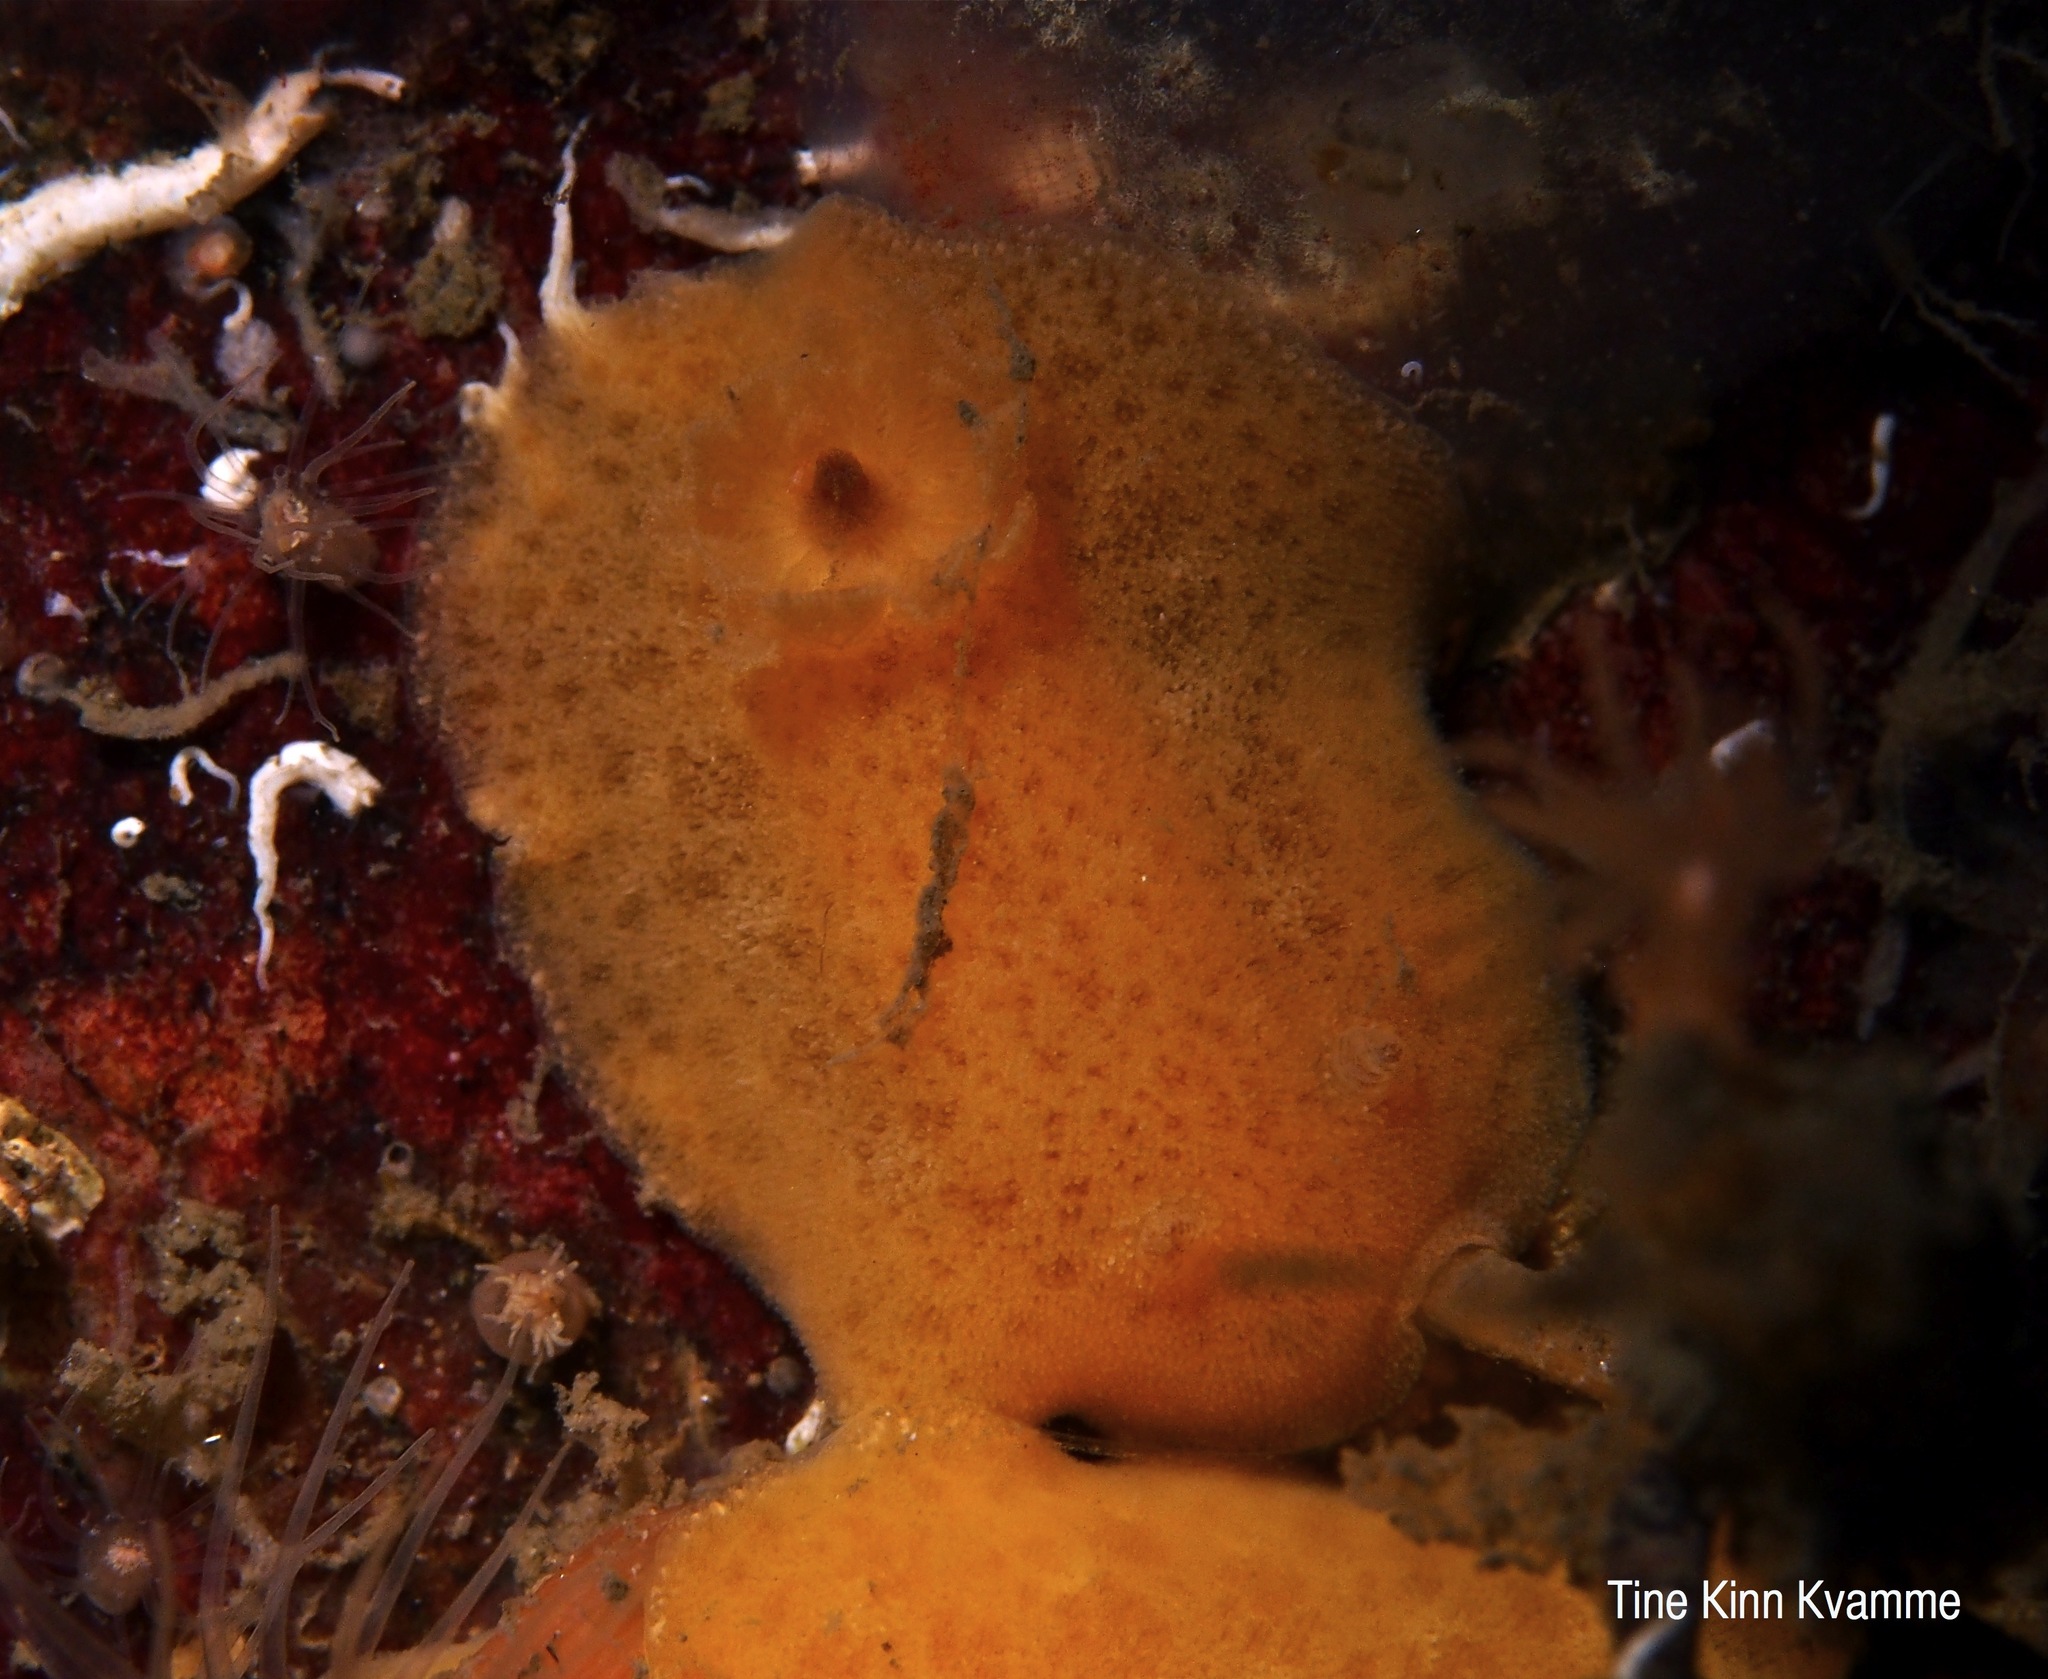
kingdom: Animalia
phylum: Mollusca
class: Gastropoda
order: Nudibranchia
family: Discodorididae
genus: Jorunna
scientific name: Jorunna tomentosa
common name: Grey sea slug
